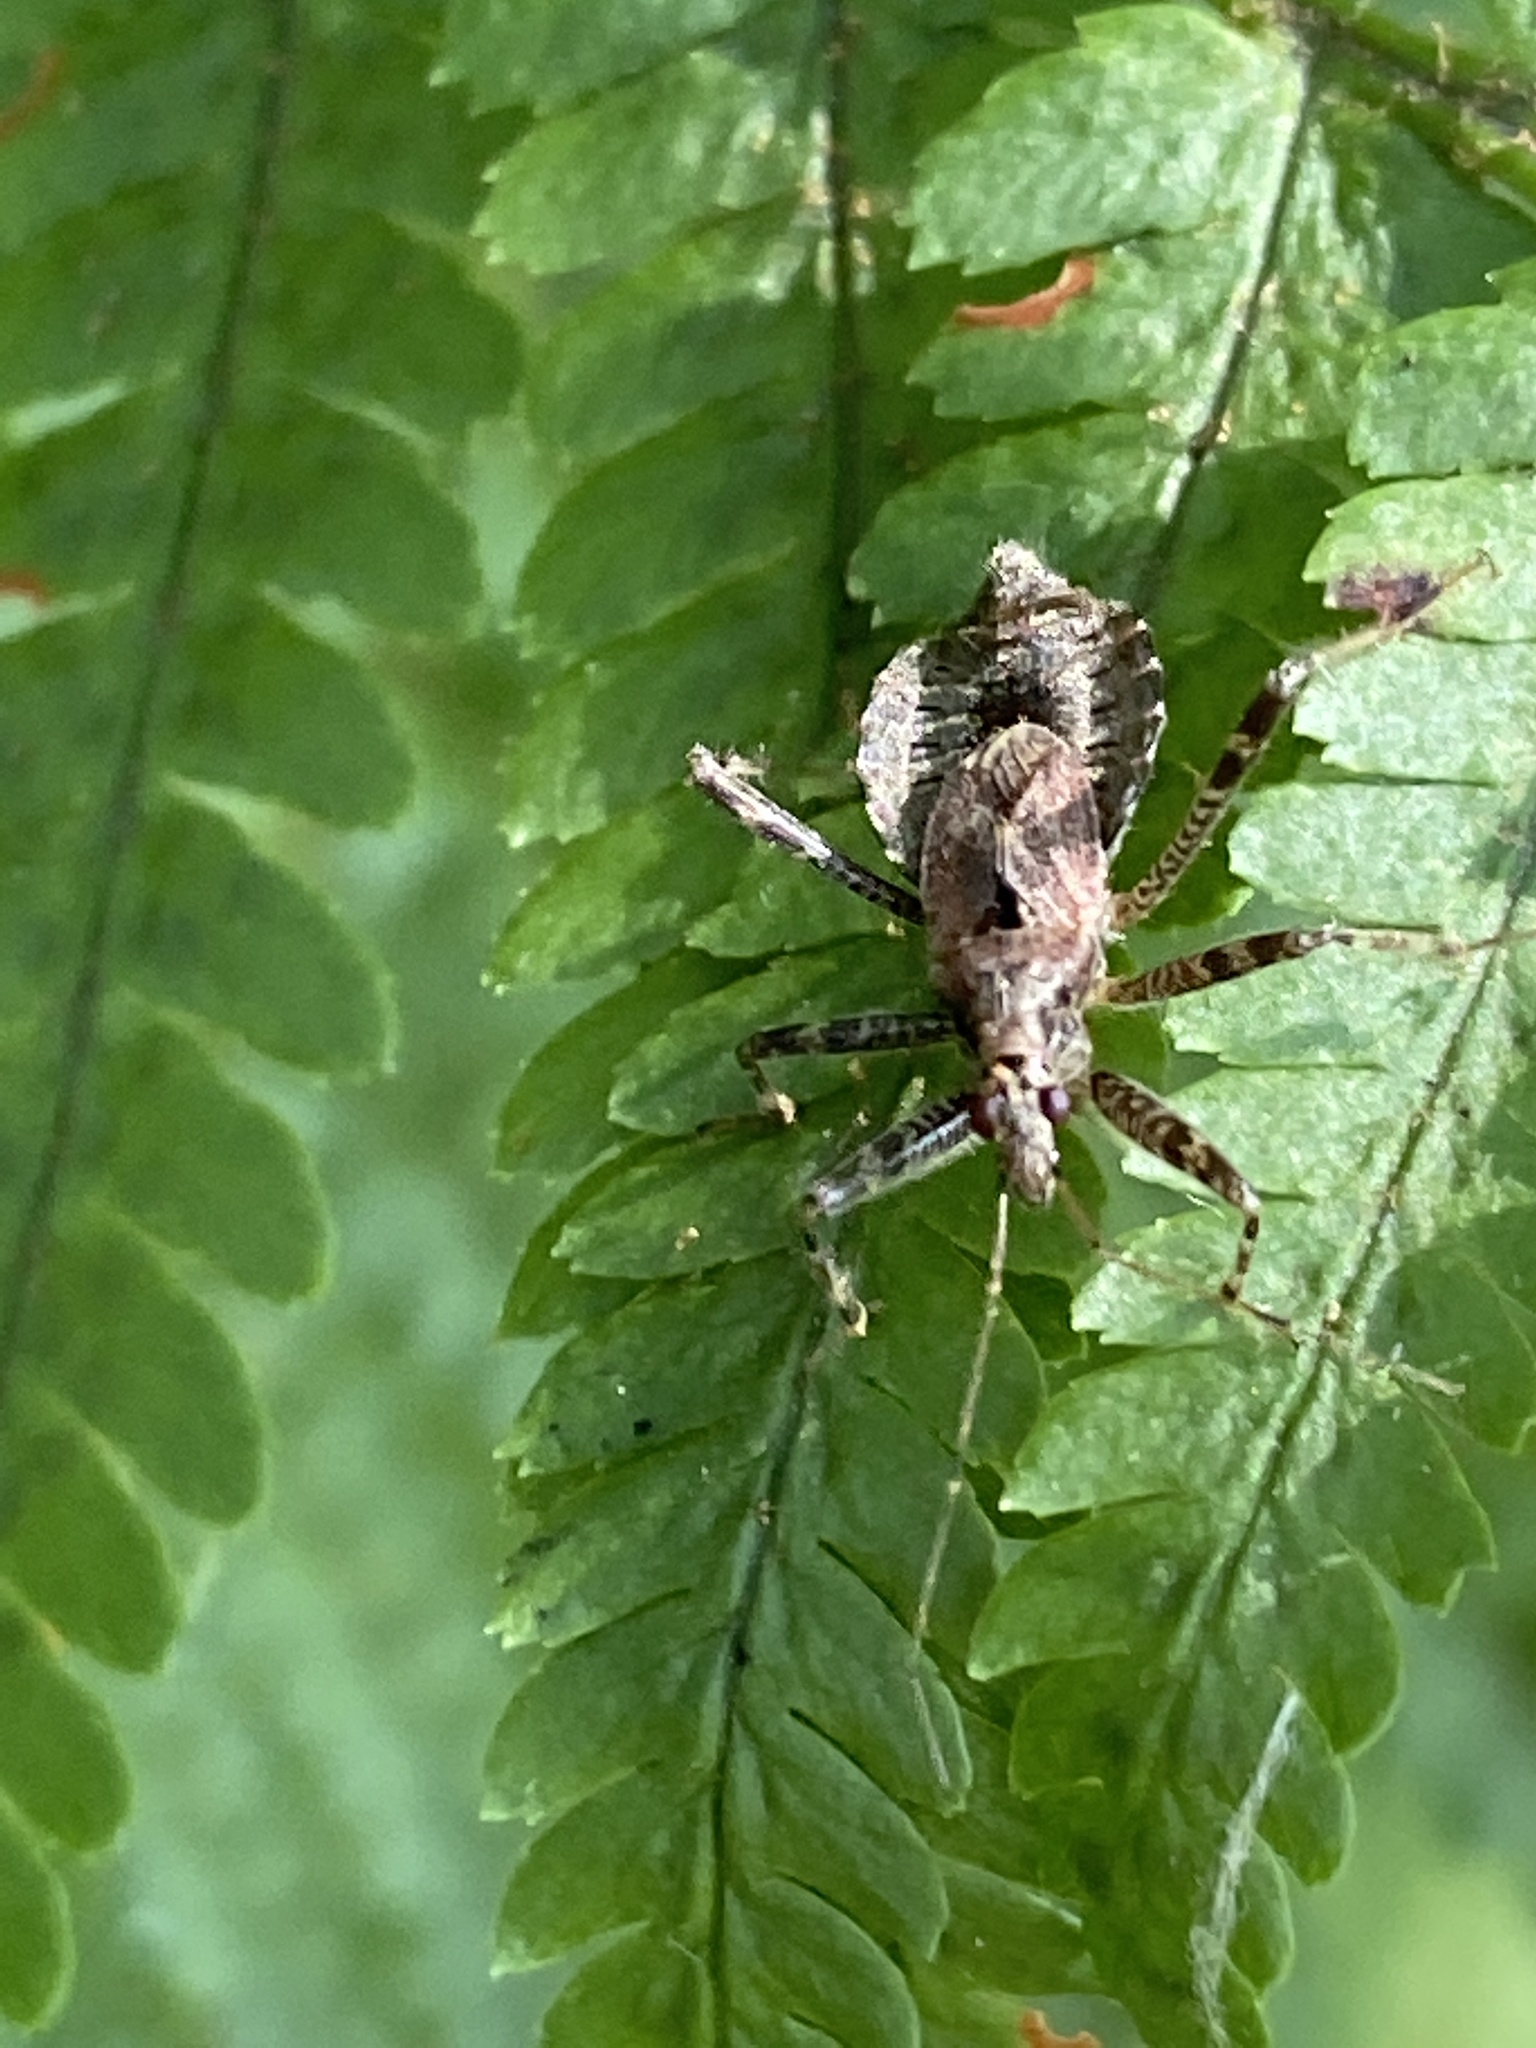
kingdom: Animalia
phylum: Arthropoda
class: Insecta
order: Hemiptera
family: Nabidae
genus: Himacerus
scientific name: Himacerus apterus
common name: Tree damsel bug
